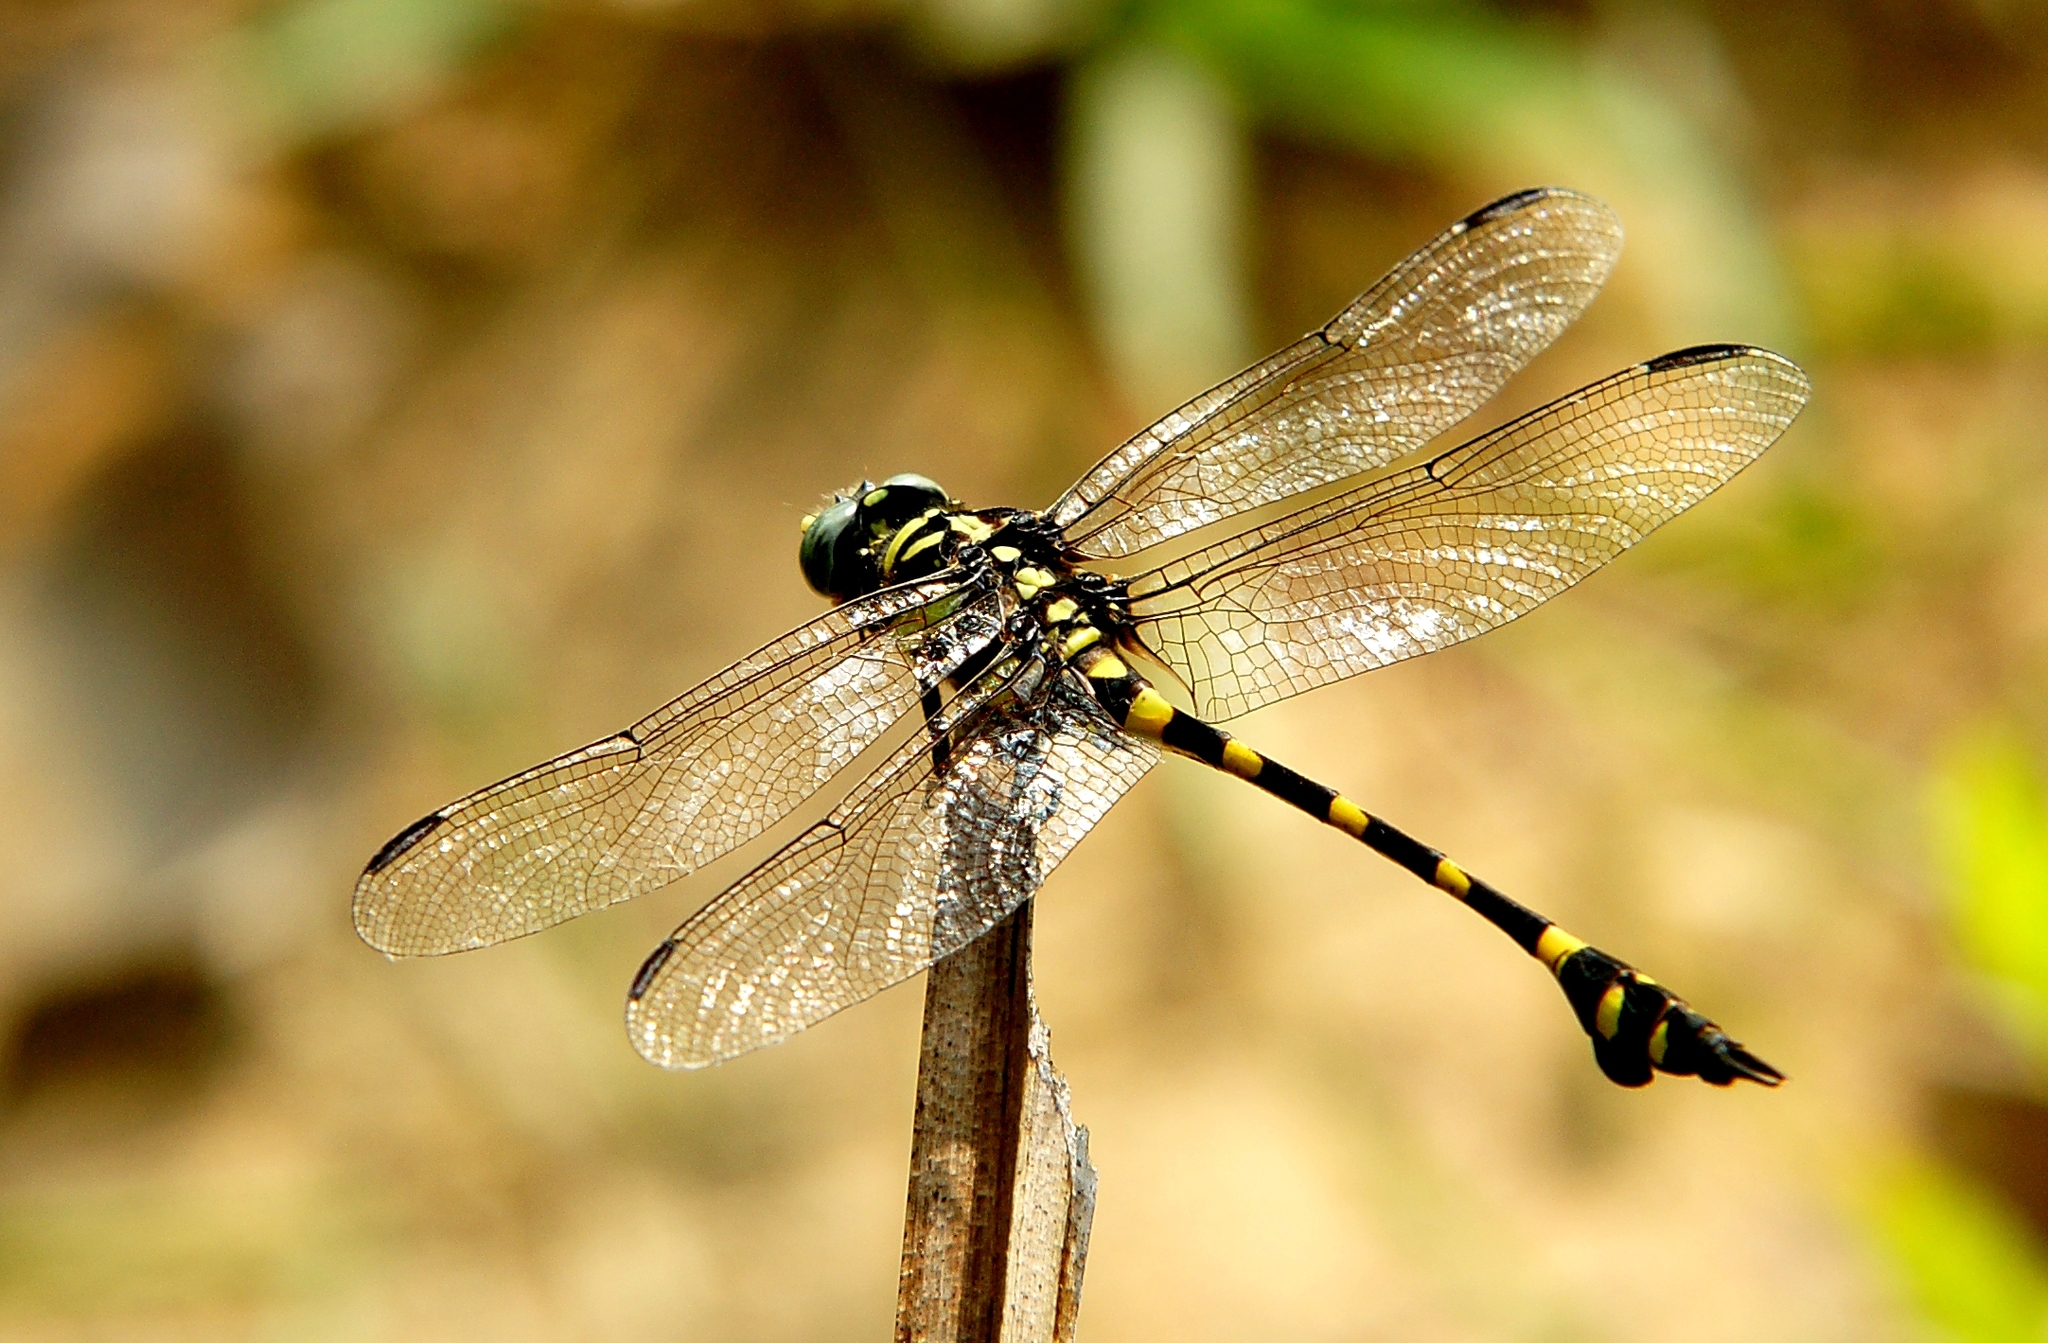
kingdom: Animalia
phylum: Arthropoda
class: Insecta
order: Odonata
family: Gomphidae
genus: Ictinogomphus
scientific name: Ictinogomphus decoratus
